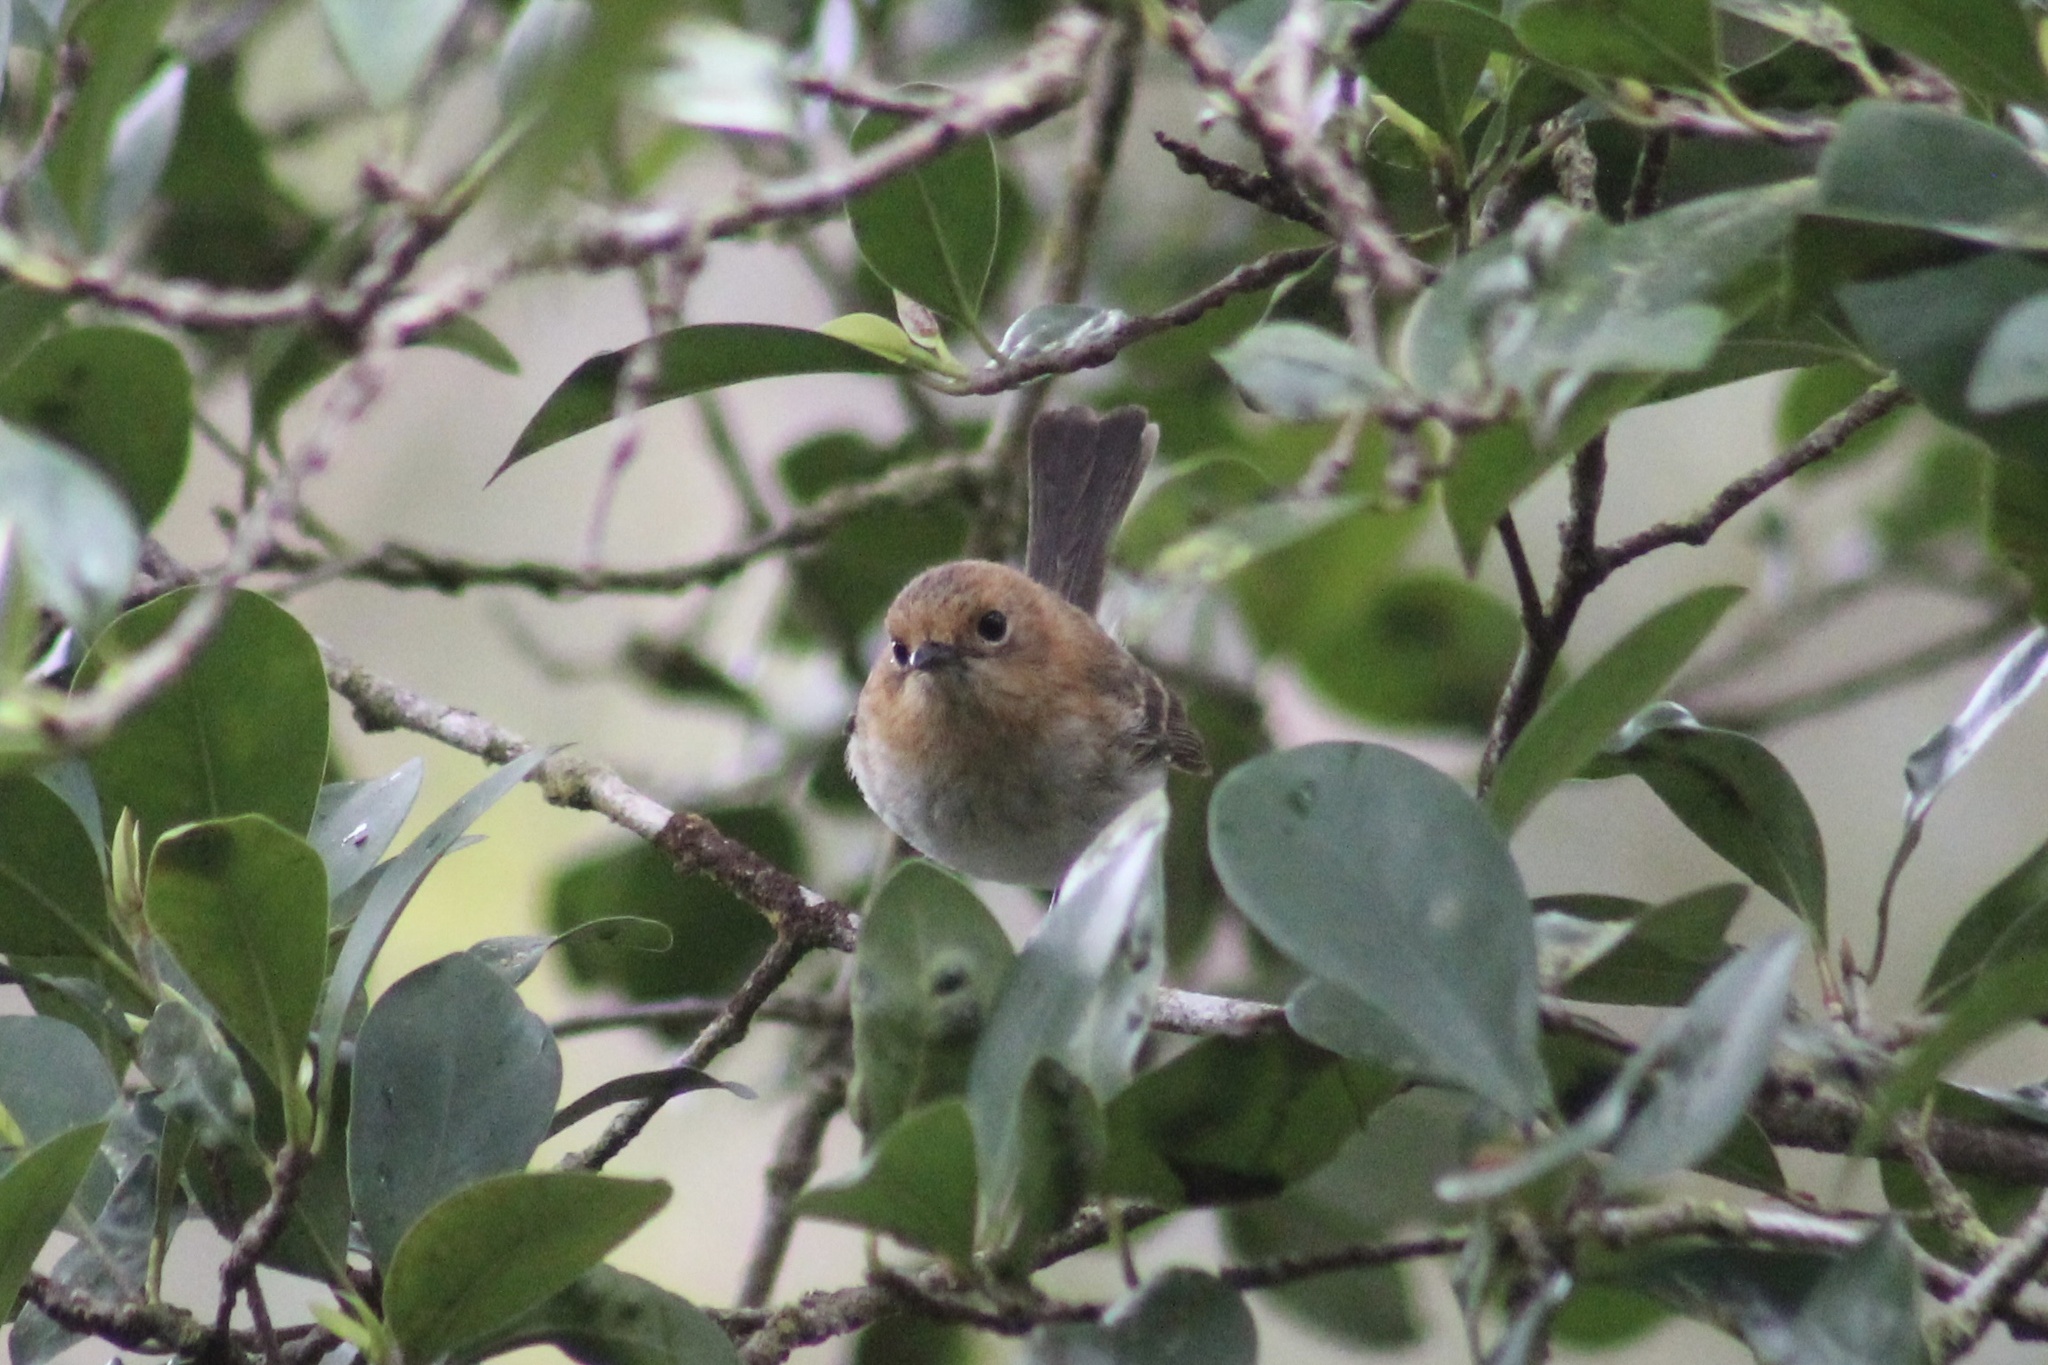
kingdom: Animalia
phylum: Chordata
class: Aves
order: Passeriformes
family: Monarchidae
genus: Chasiempis
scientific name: Chasiempis ibidis
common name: Oahu elepaio
